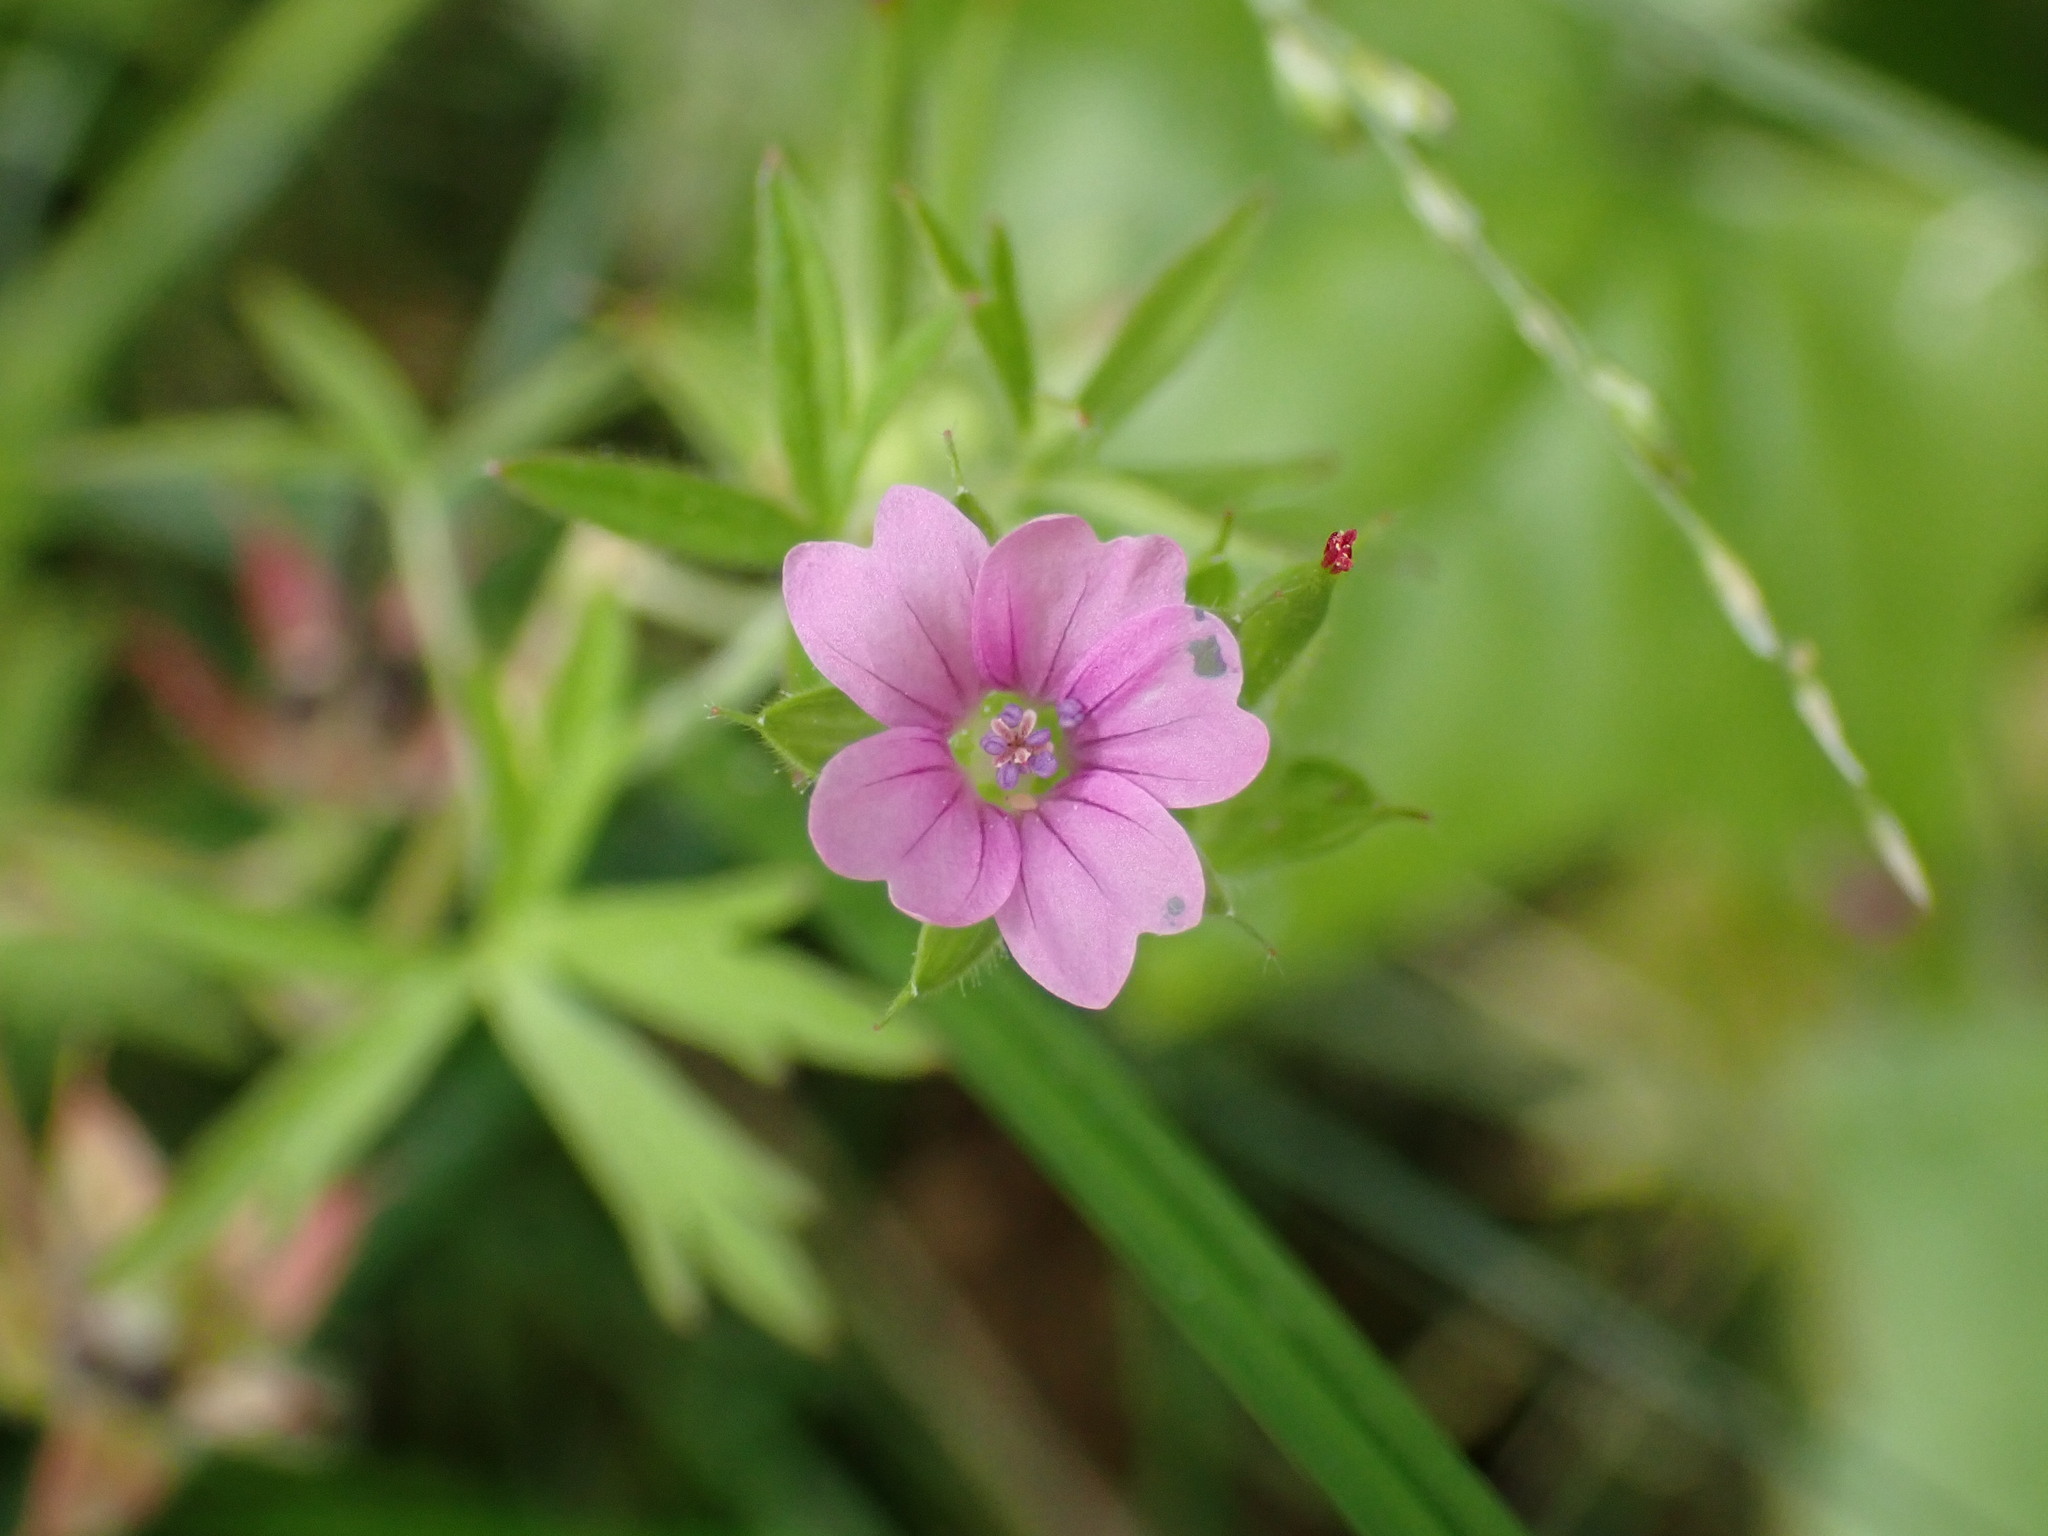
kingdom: Plantae
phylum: Tracheophyta
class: Magnoliopsida
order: Geraniales
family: Geraniaceae
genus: Geranium
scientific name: Geranium dissectum
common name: Cut-leaved crane's-bill
